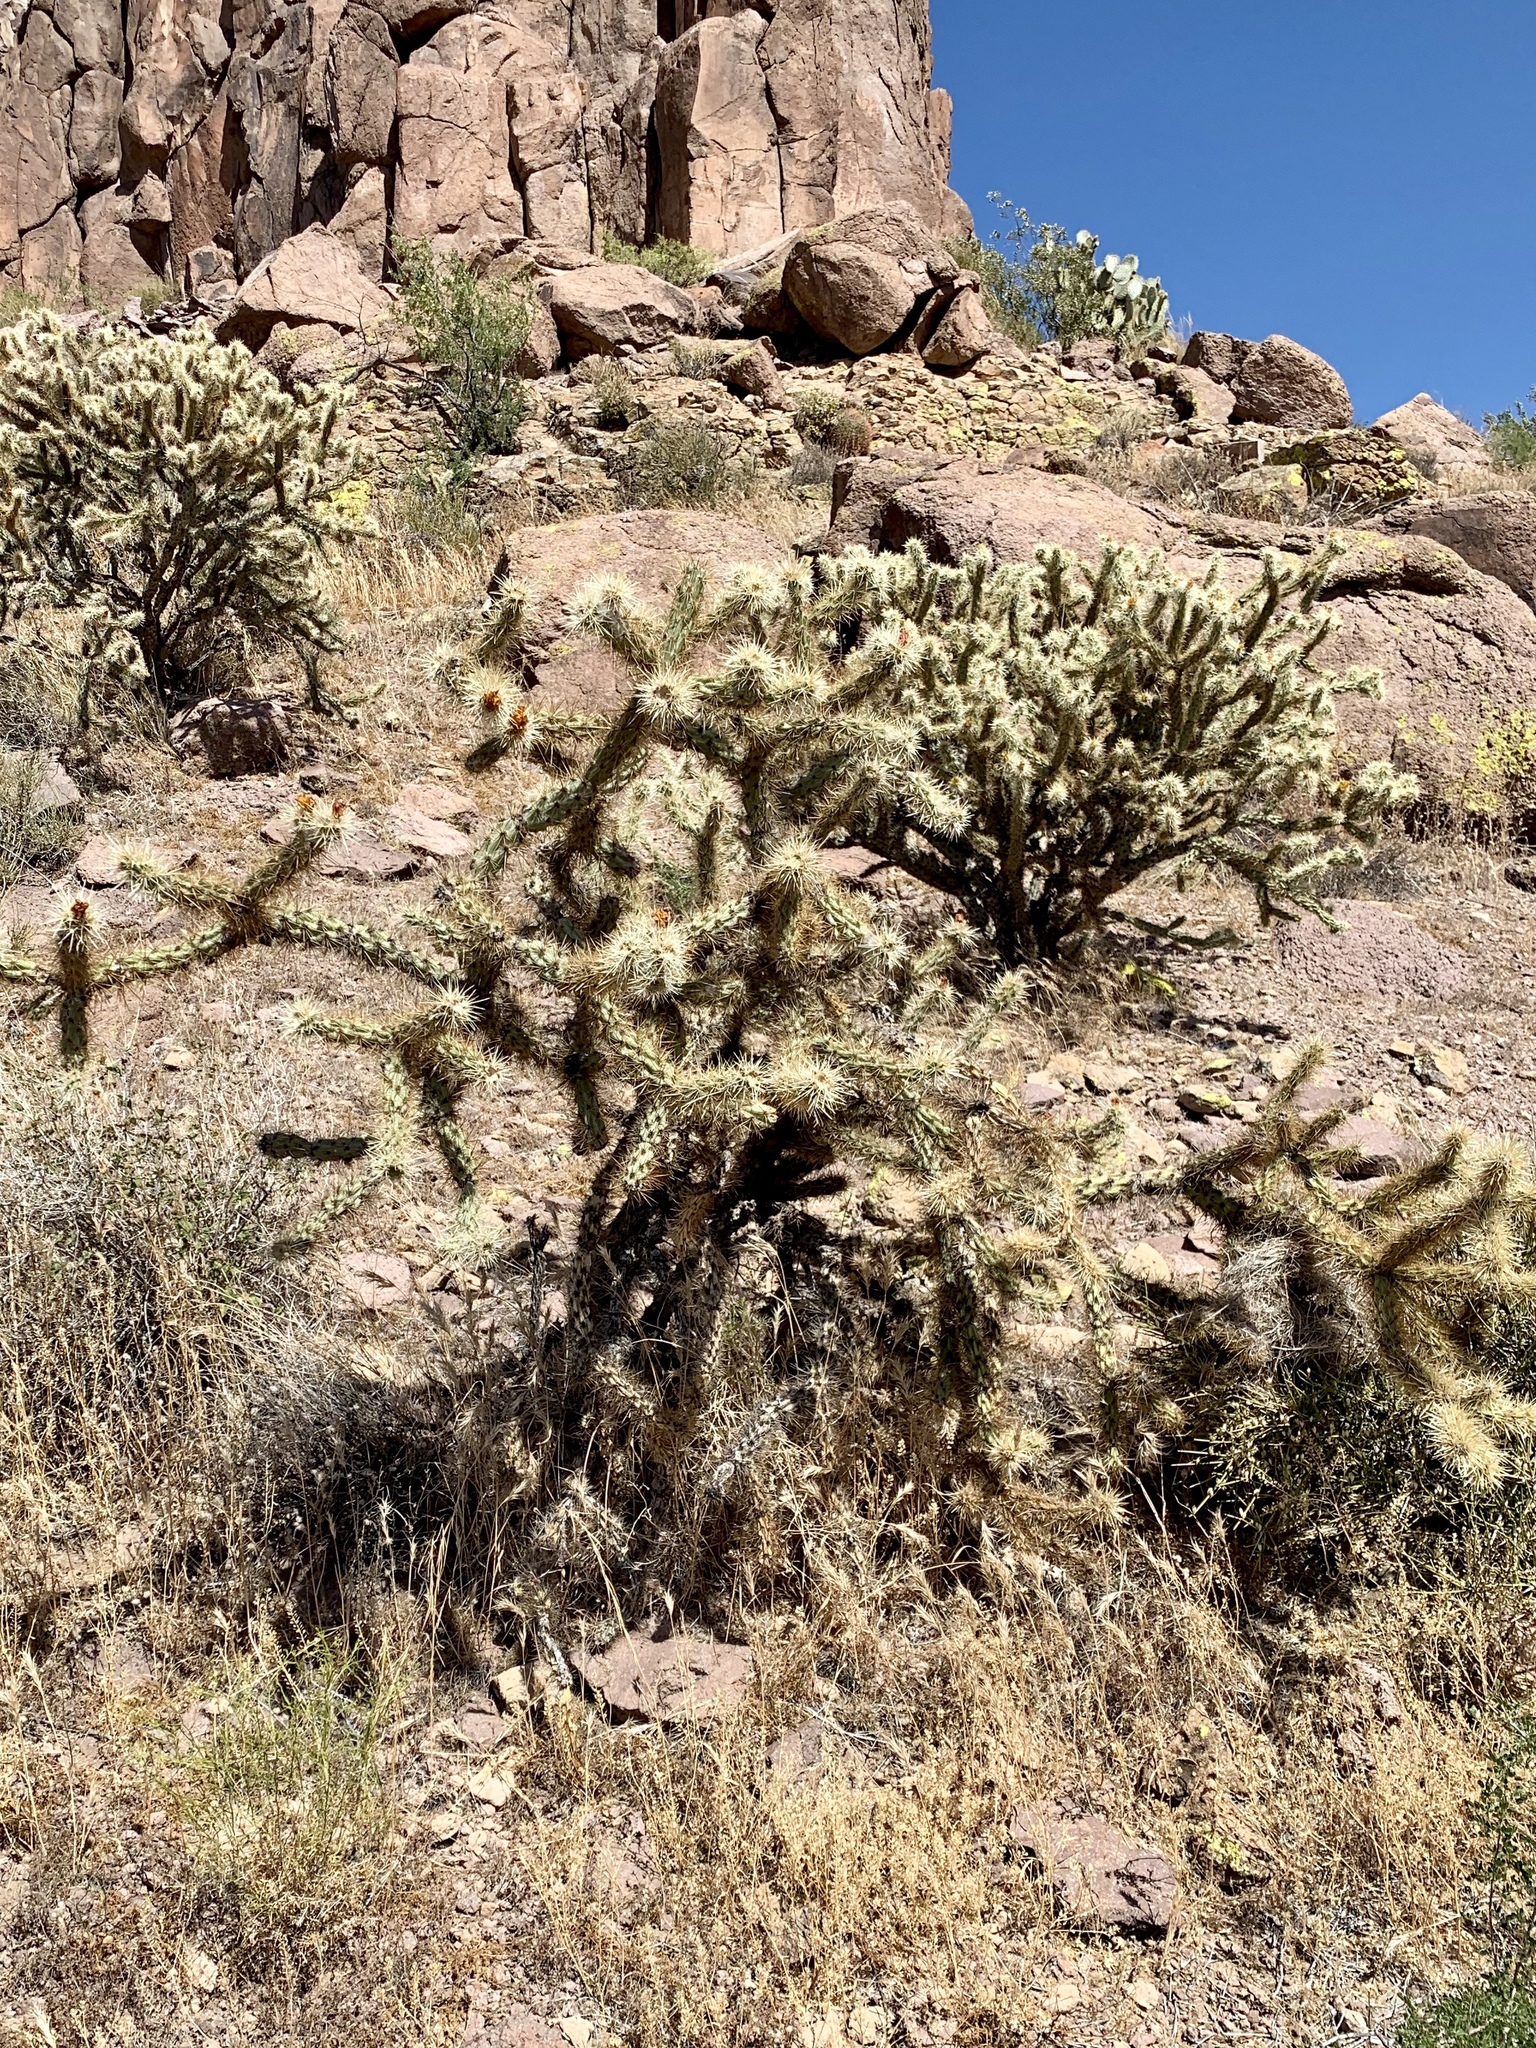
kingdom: Plantae
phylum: Tracheophyta
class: Magnoliopsida
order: Caryophyllales
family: Cactaceae
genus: Cylindropuntia
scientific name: Cylindropuntia acanthocarpa
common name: Buckhorn cholla
